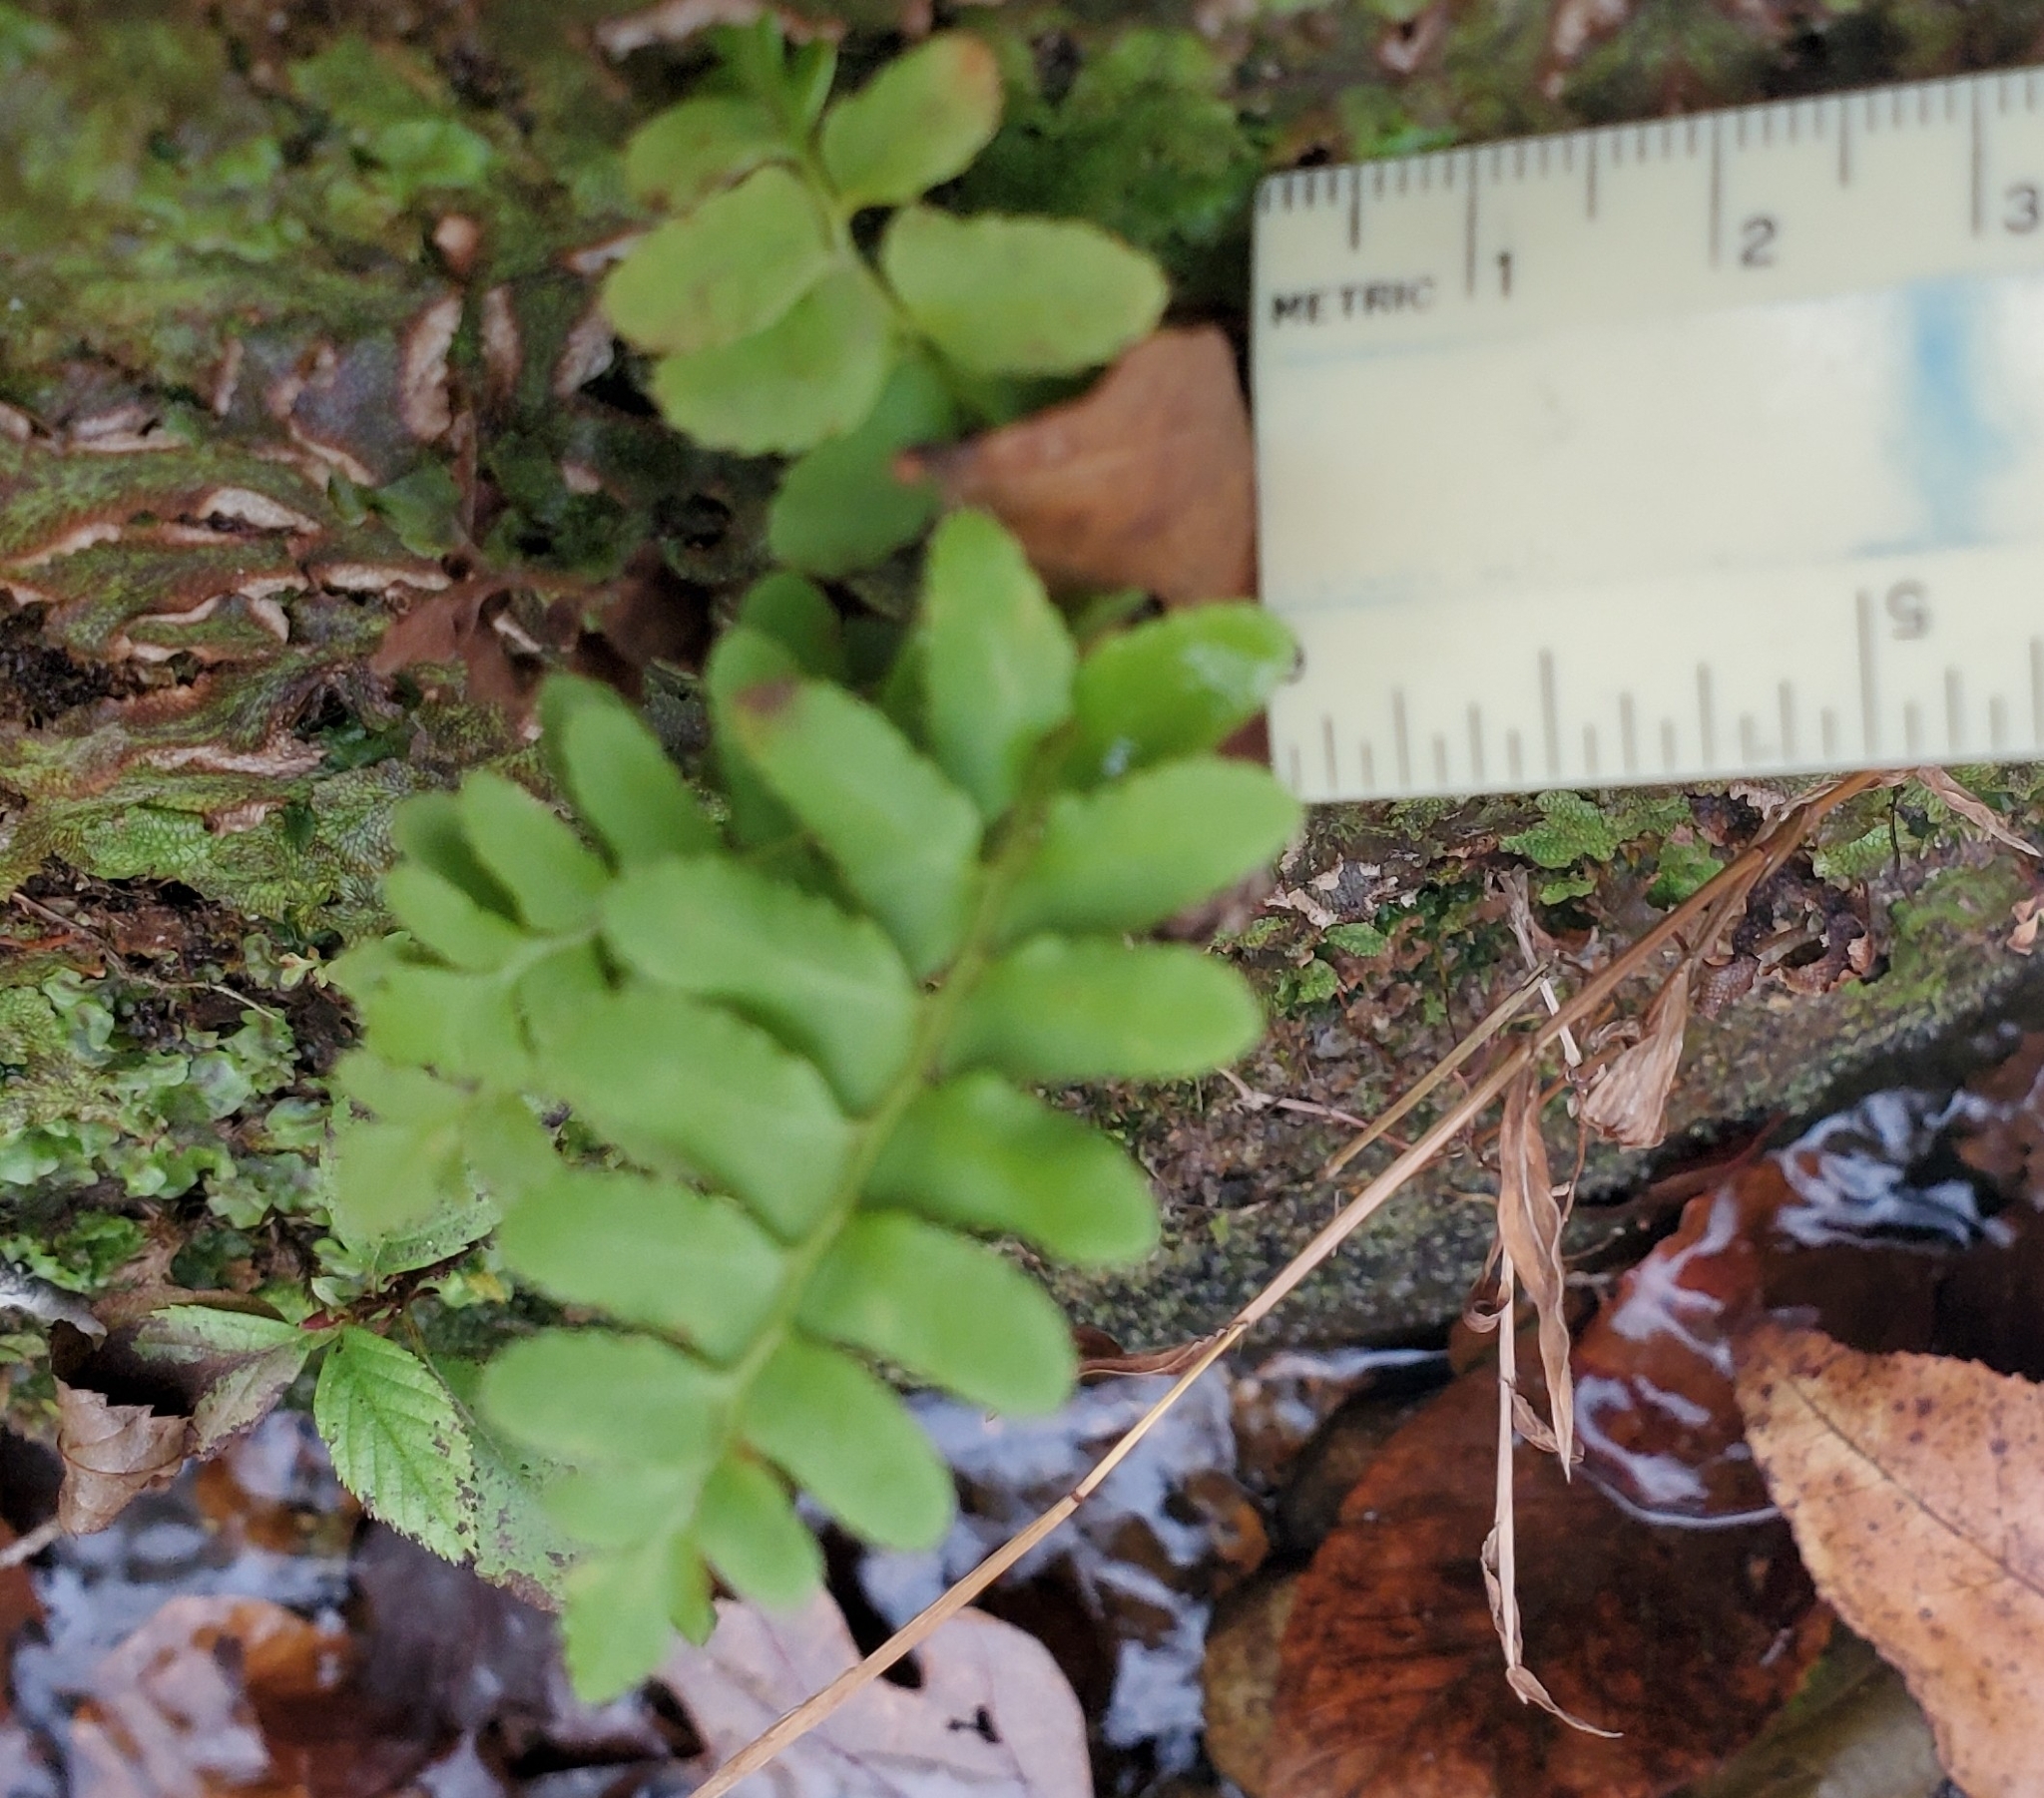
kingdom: Plantae
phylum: Tracheophyta
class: Polypodiopsida
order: Polypodiales
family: Dryopteridaceae
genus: Polystichum
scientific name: Polystichum acrostichoides
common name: Christmas fern
